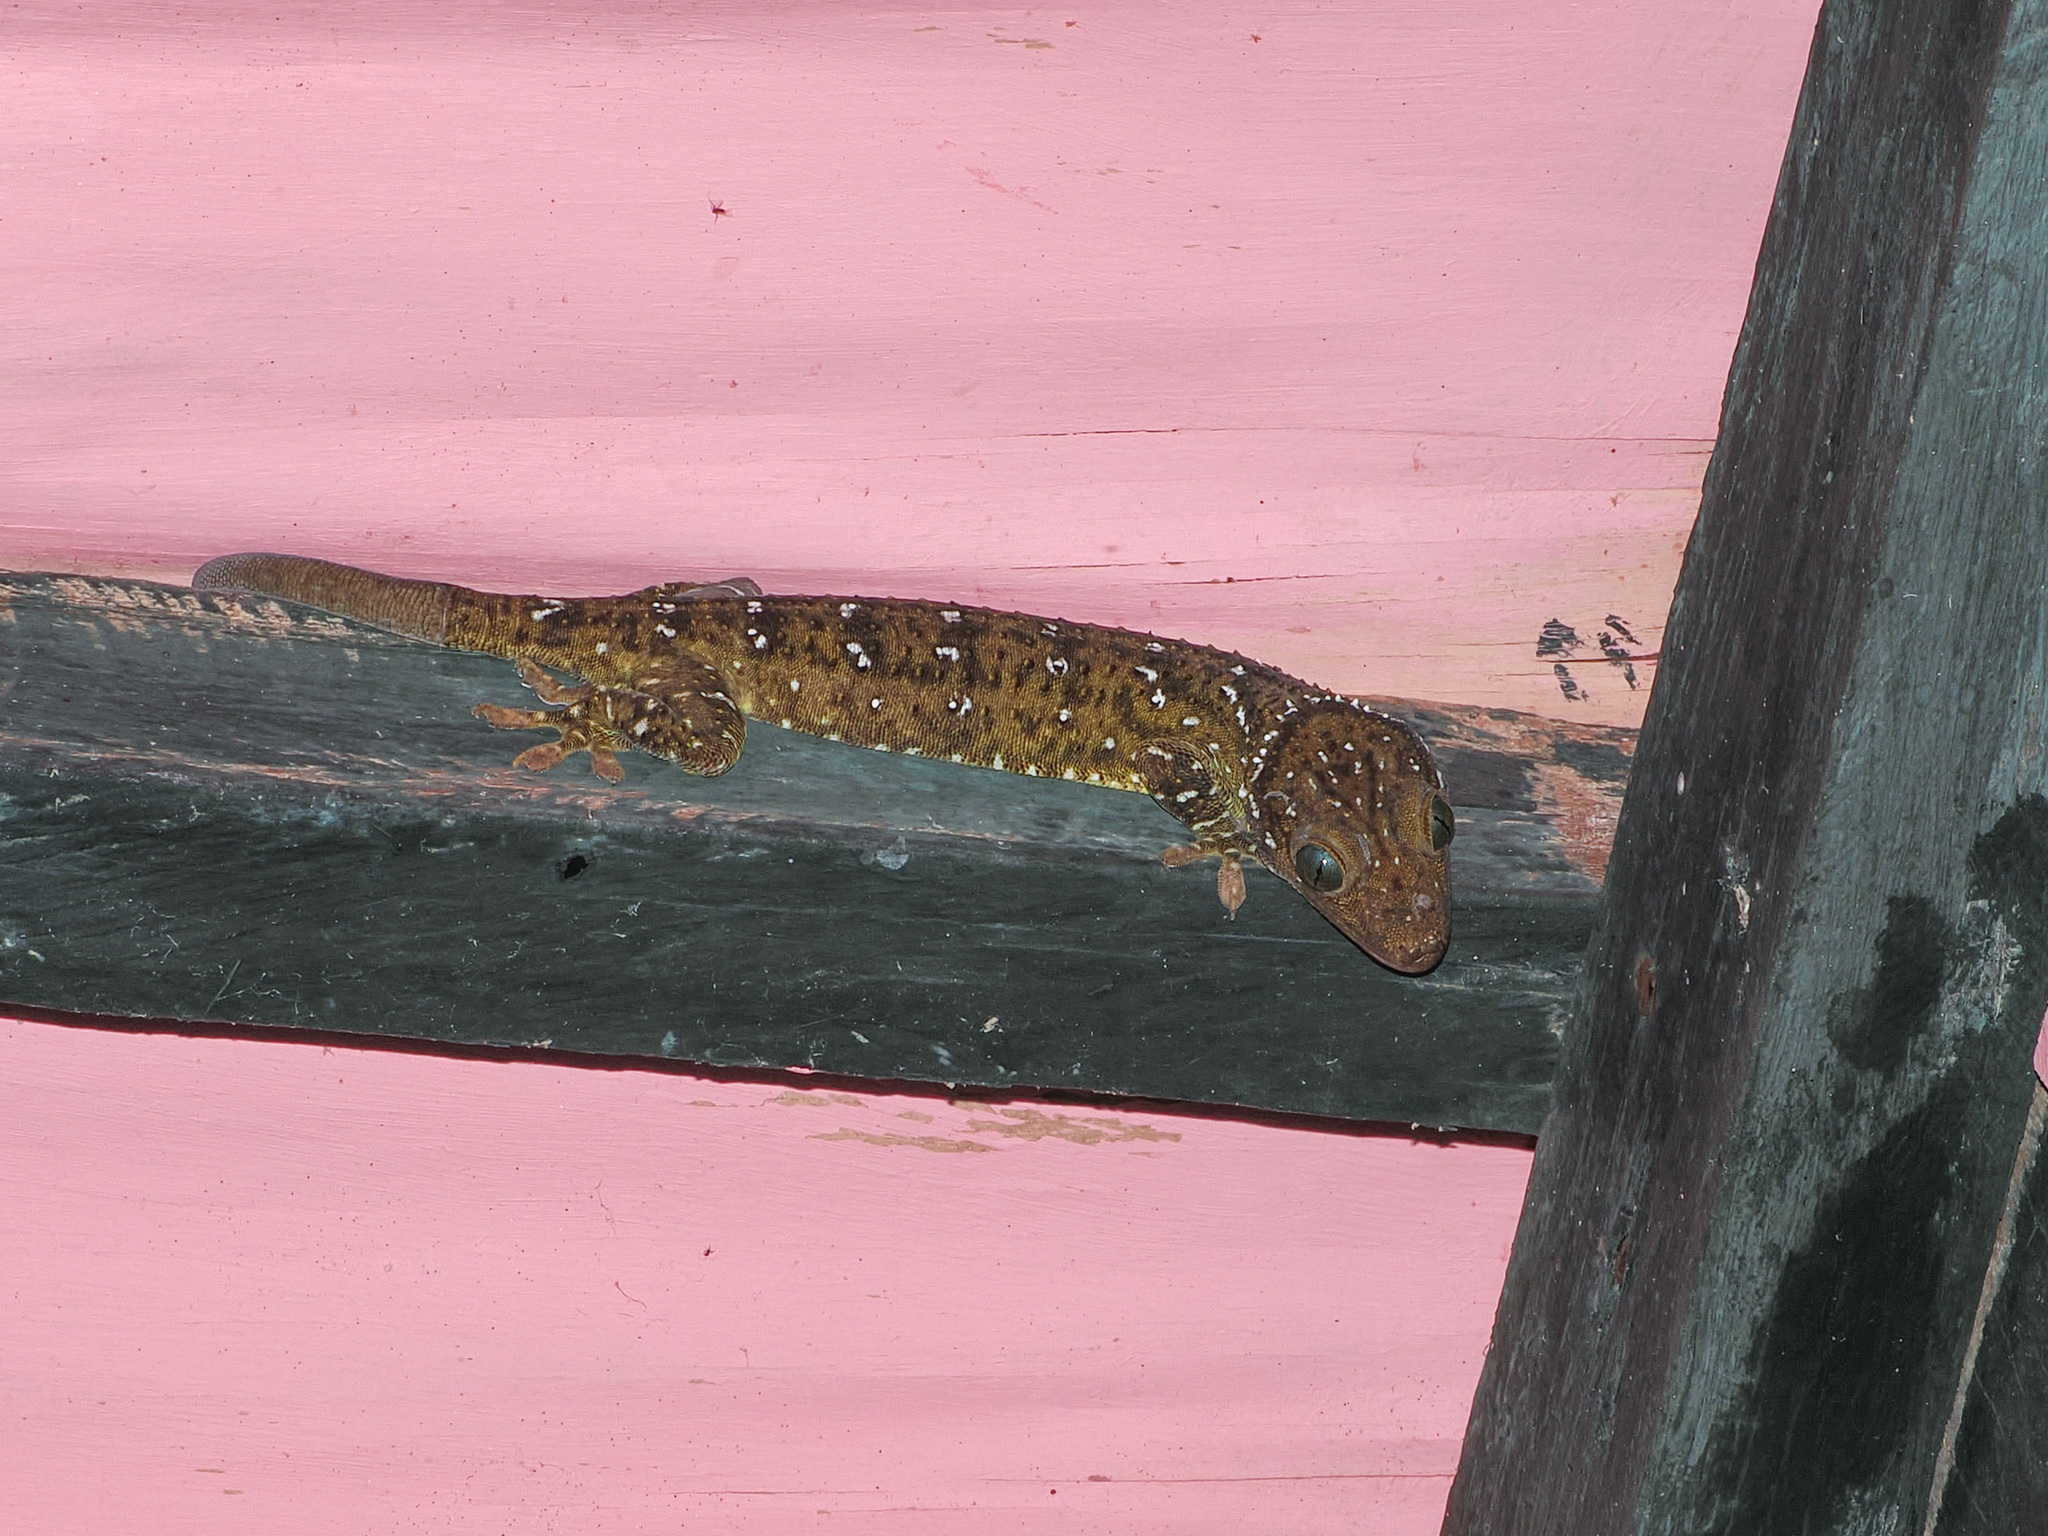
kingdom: Animalia
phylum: Chordata
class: Squamata
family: Gekkonidae
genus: Gekko
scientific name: Gekko smithii
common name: Large forest gecko
